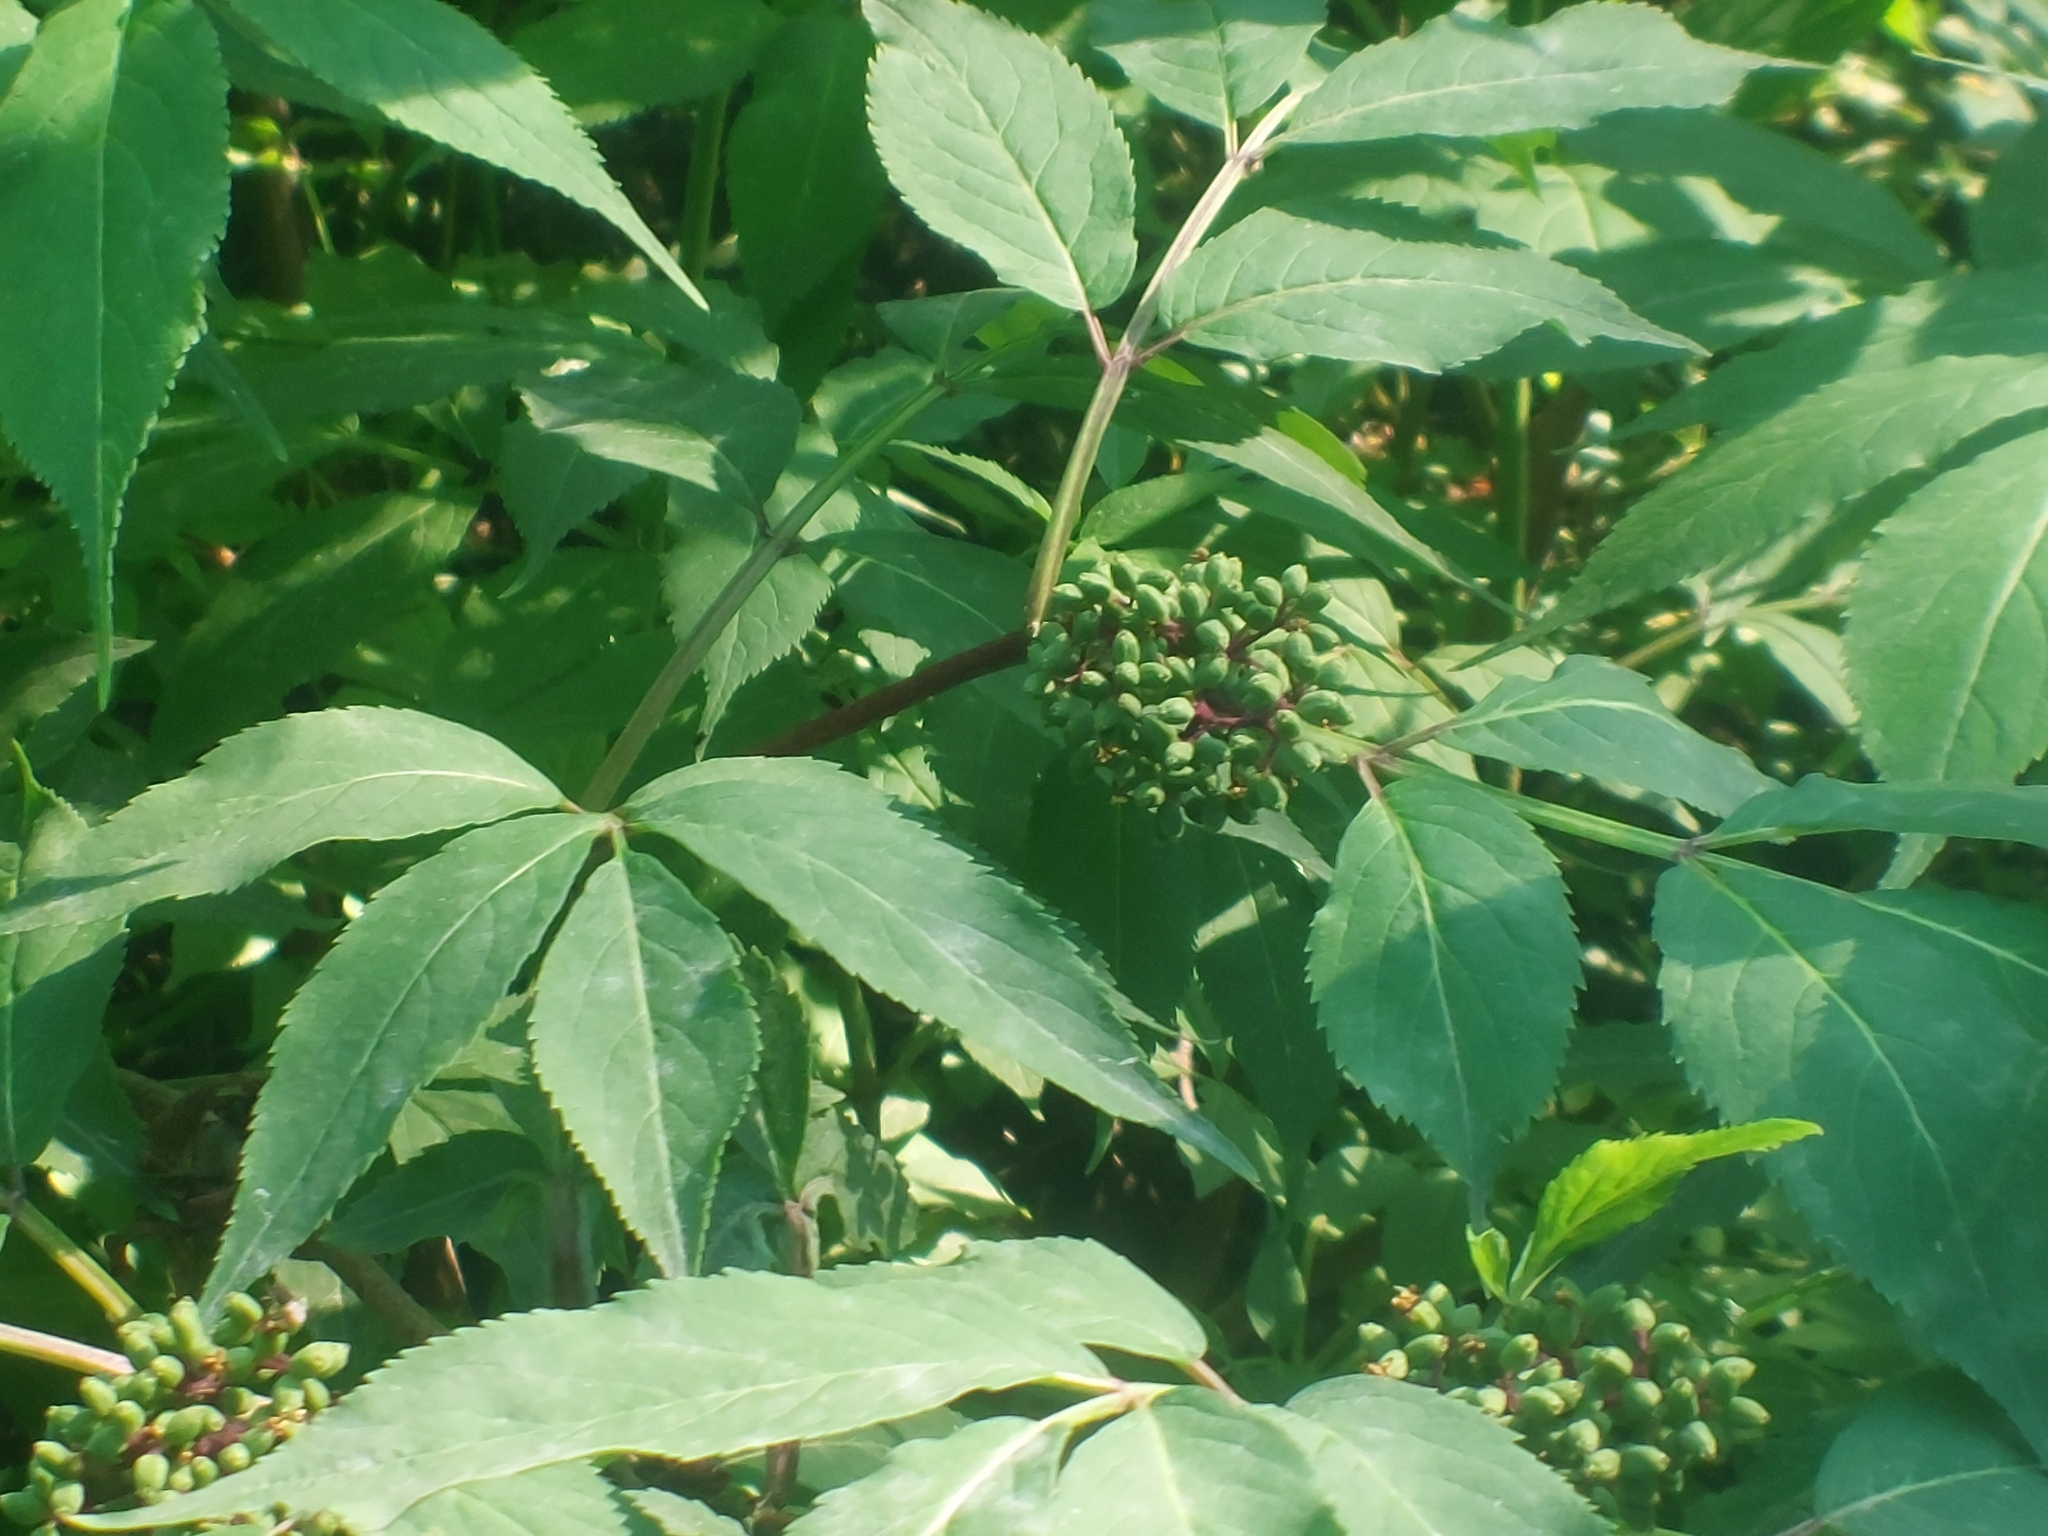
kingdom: Plantae
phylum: Tracheophyta
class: Magnoliopsida
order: Dipsacales
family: Viburnaceae
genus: Sambucus
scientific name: Sambucus racemosa
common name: Red-berried elder
